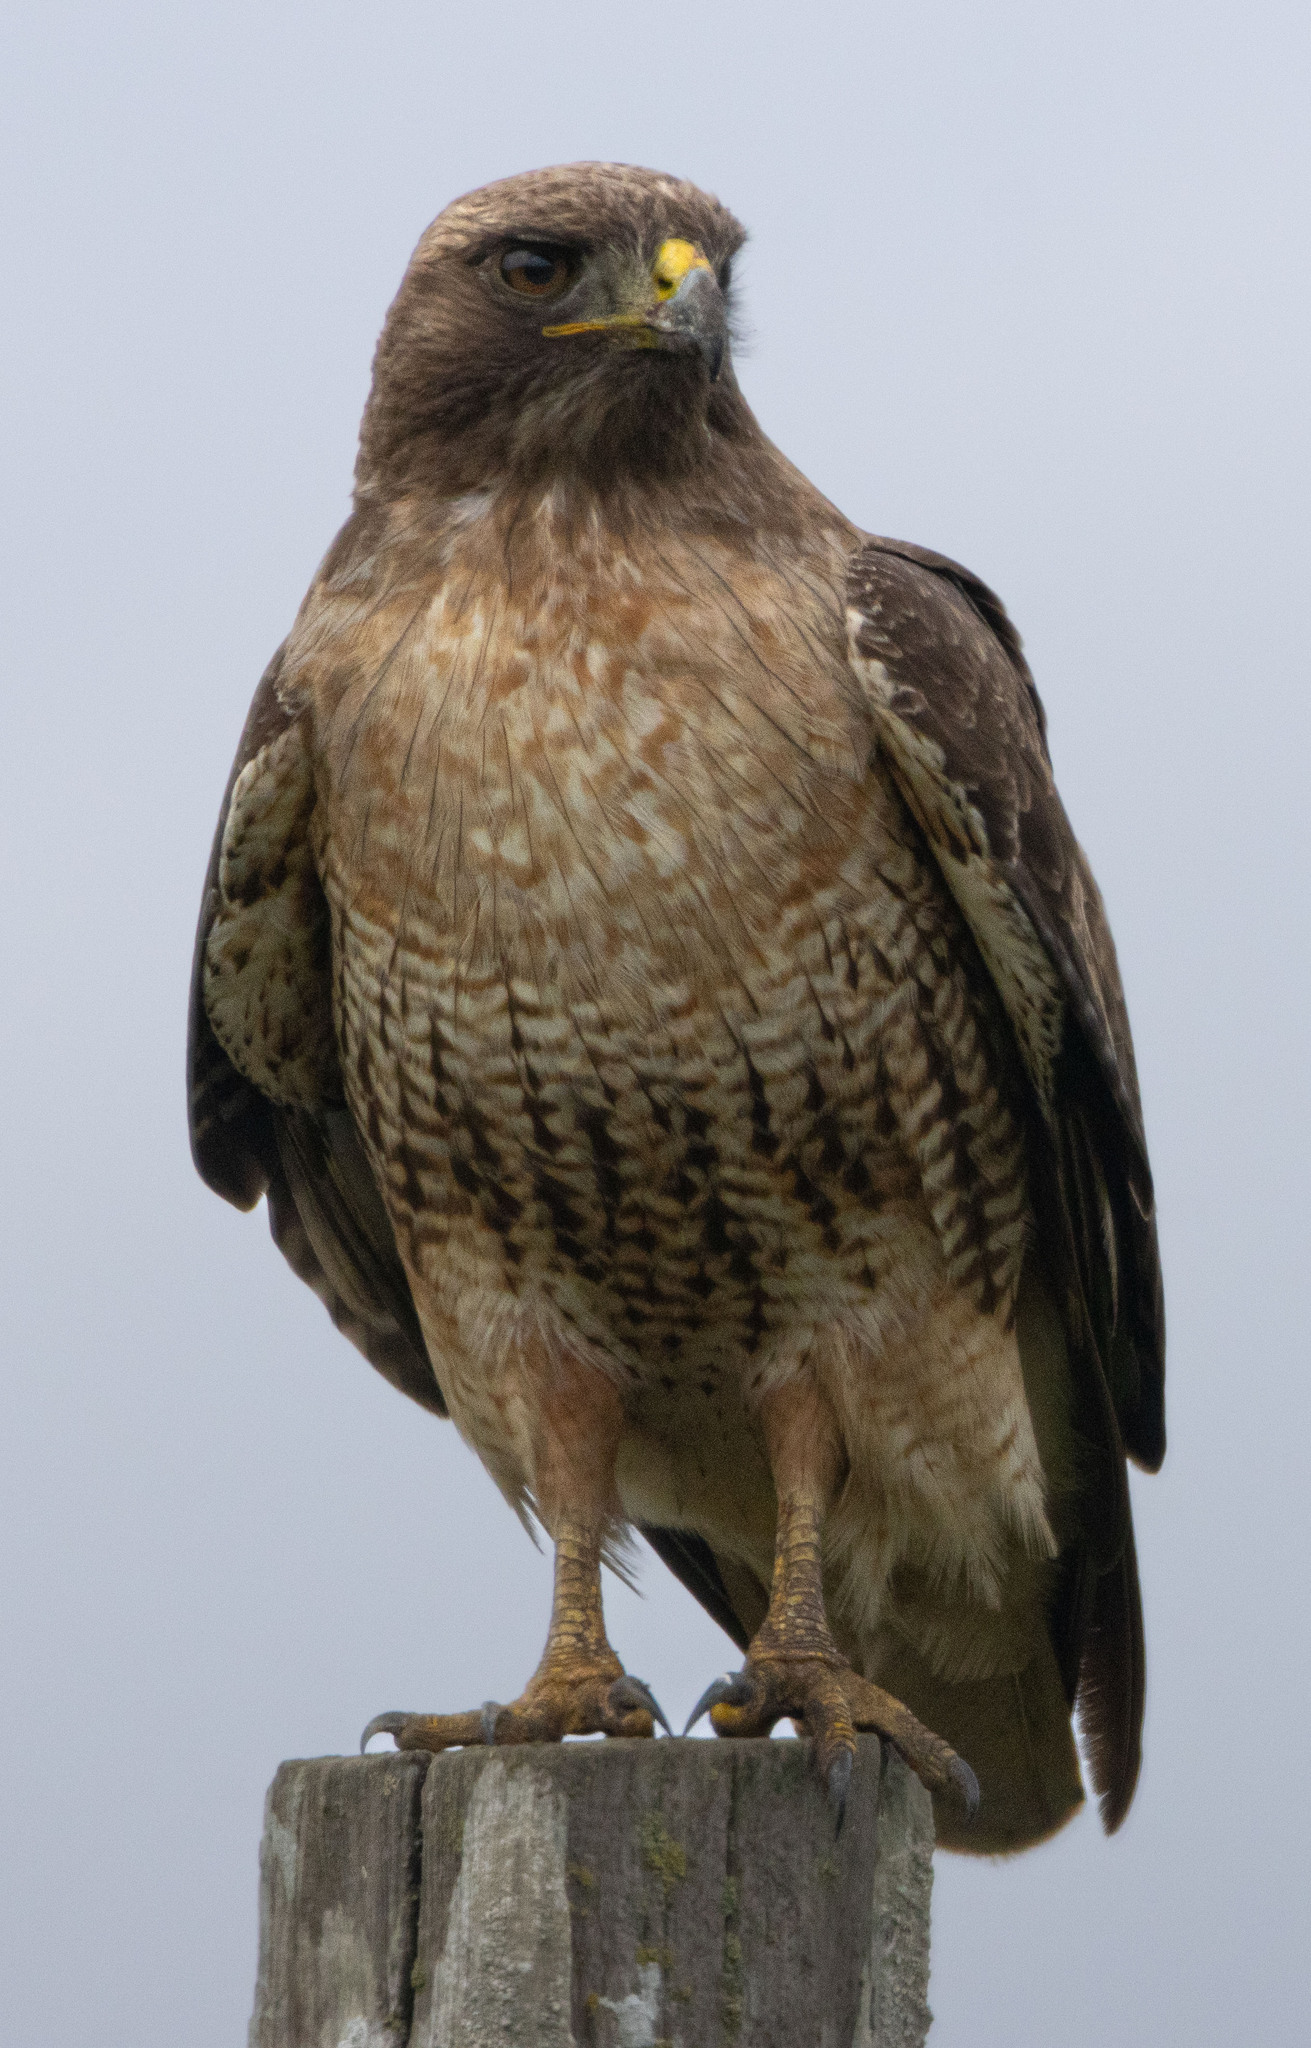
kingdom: Animalia
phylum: Chordata
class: Aves
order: Accipitriformes
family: Accipitridae
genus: Buteo
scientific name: Buteo jamaicensis
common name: Red-tailed hawk
